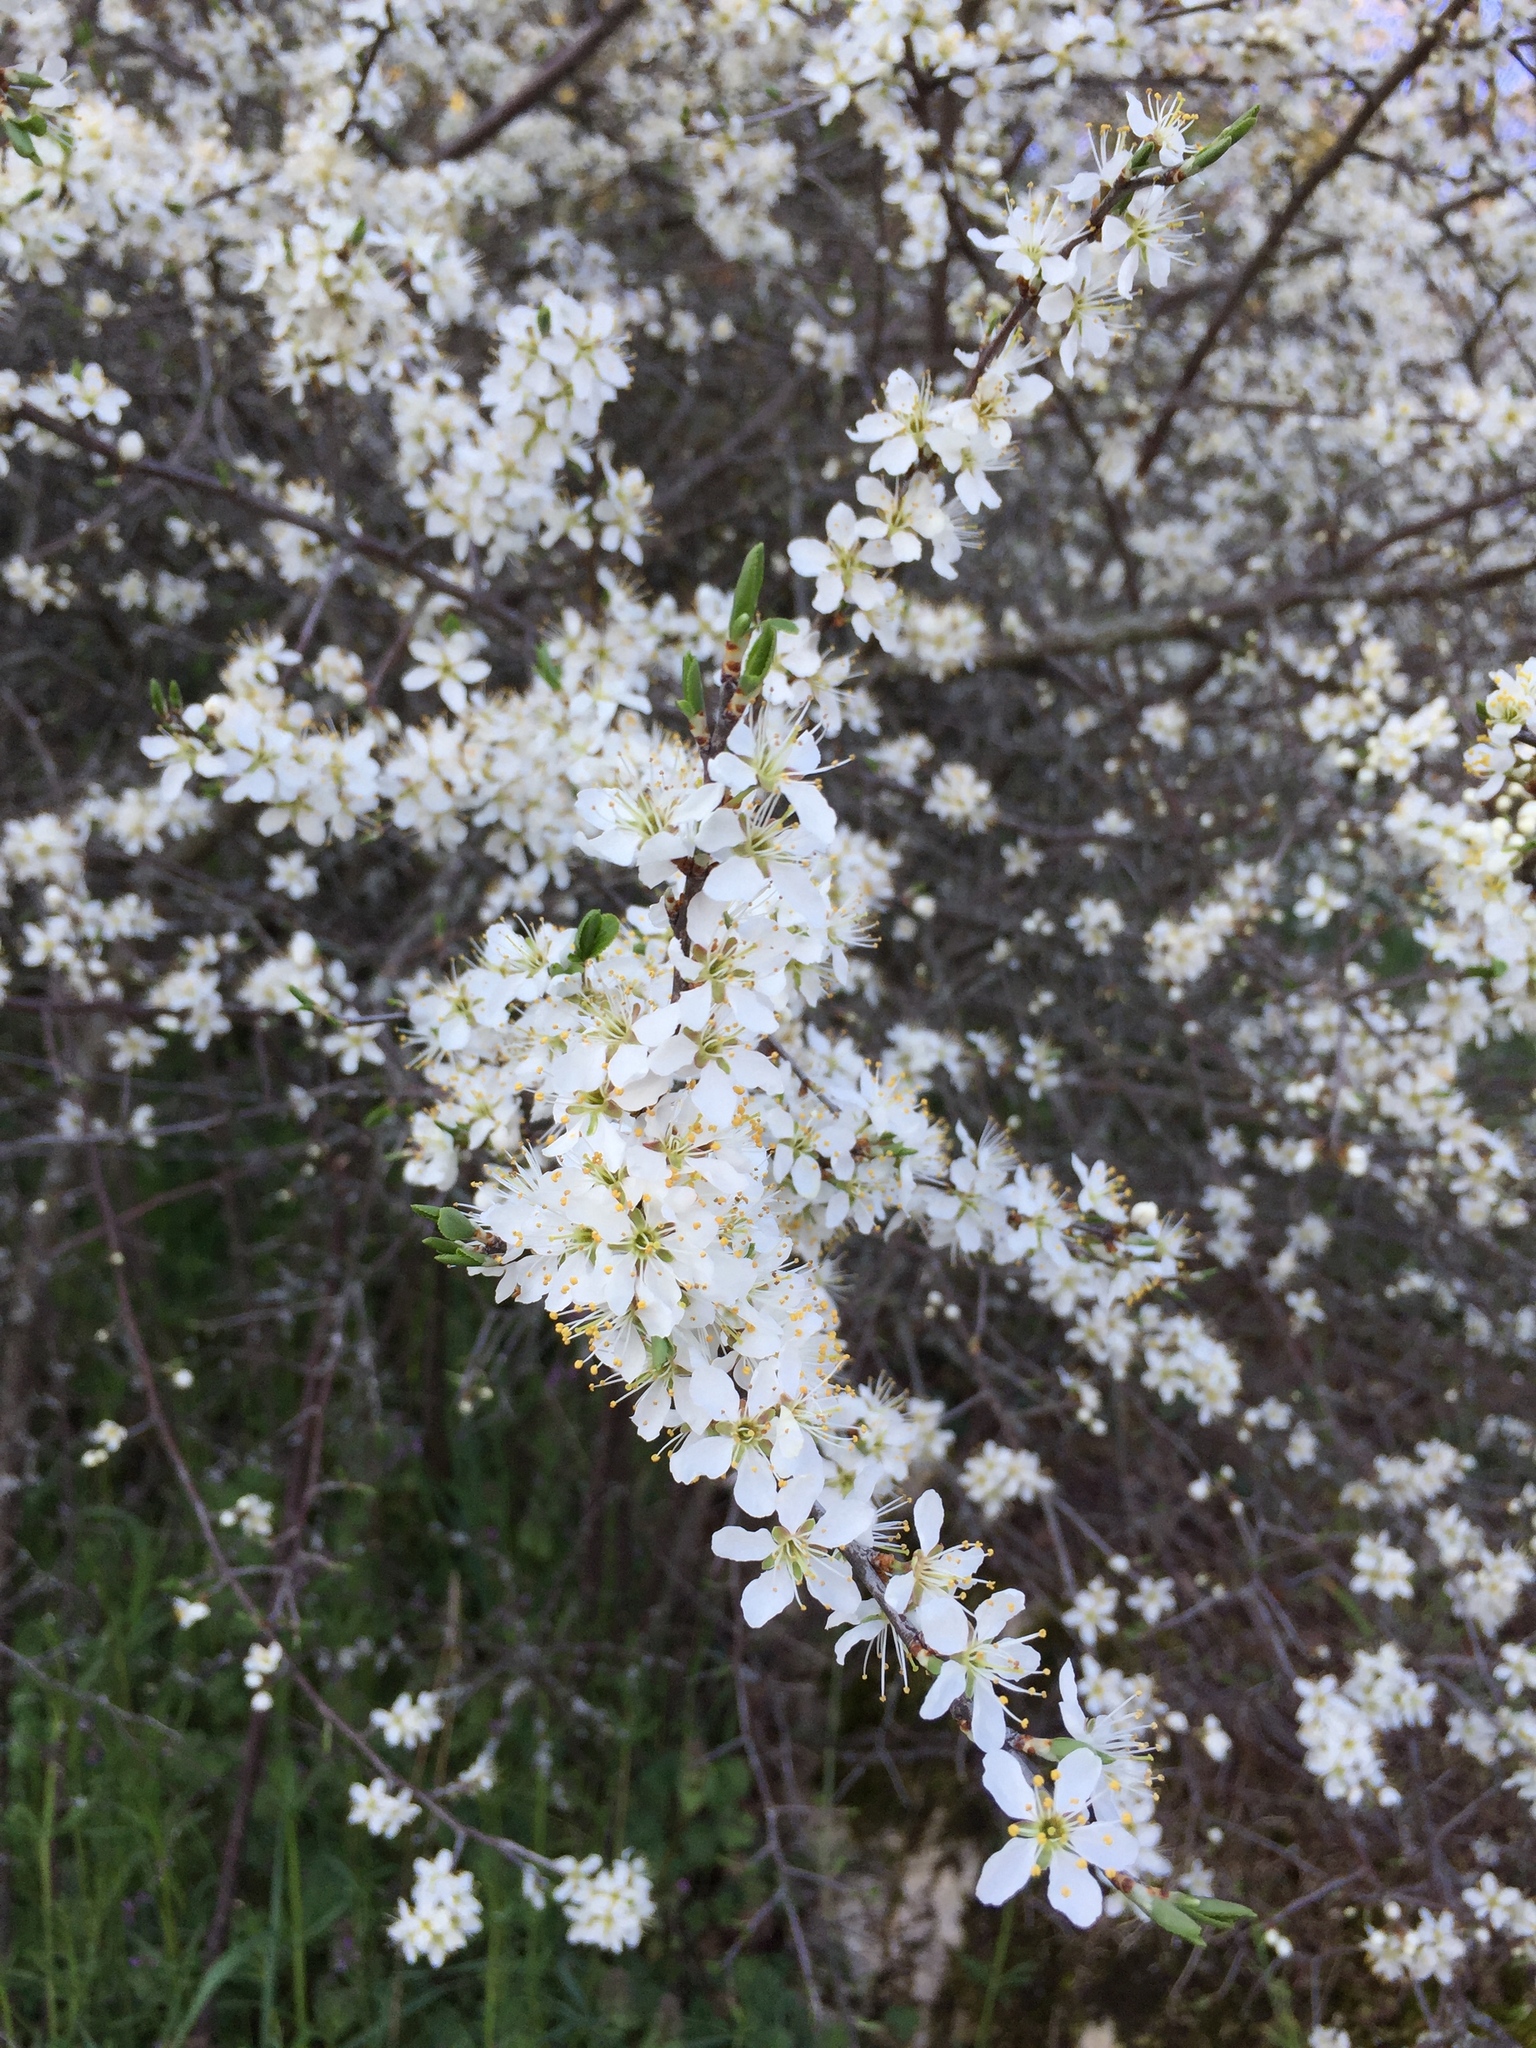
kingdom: Plantae
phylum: Tracheophyta
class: Magnoliopsida
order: Rosales
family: Rosaceae
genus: Prunus
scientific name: Prunus spinosa
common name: Blackthorn
